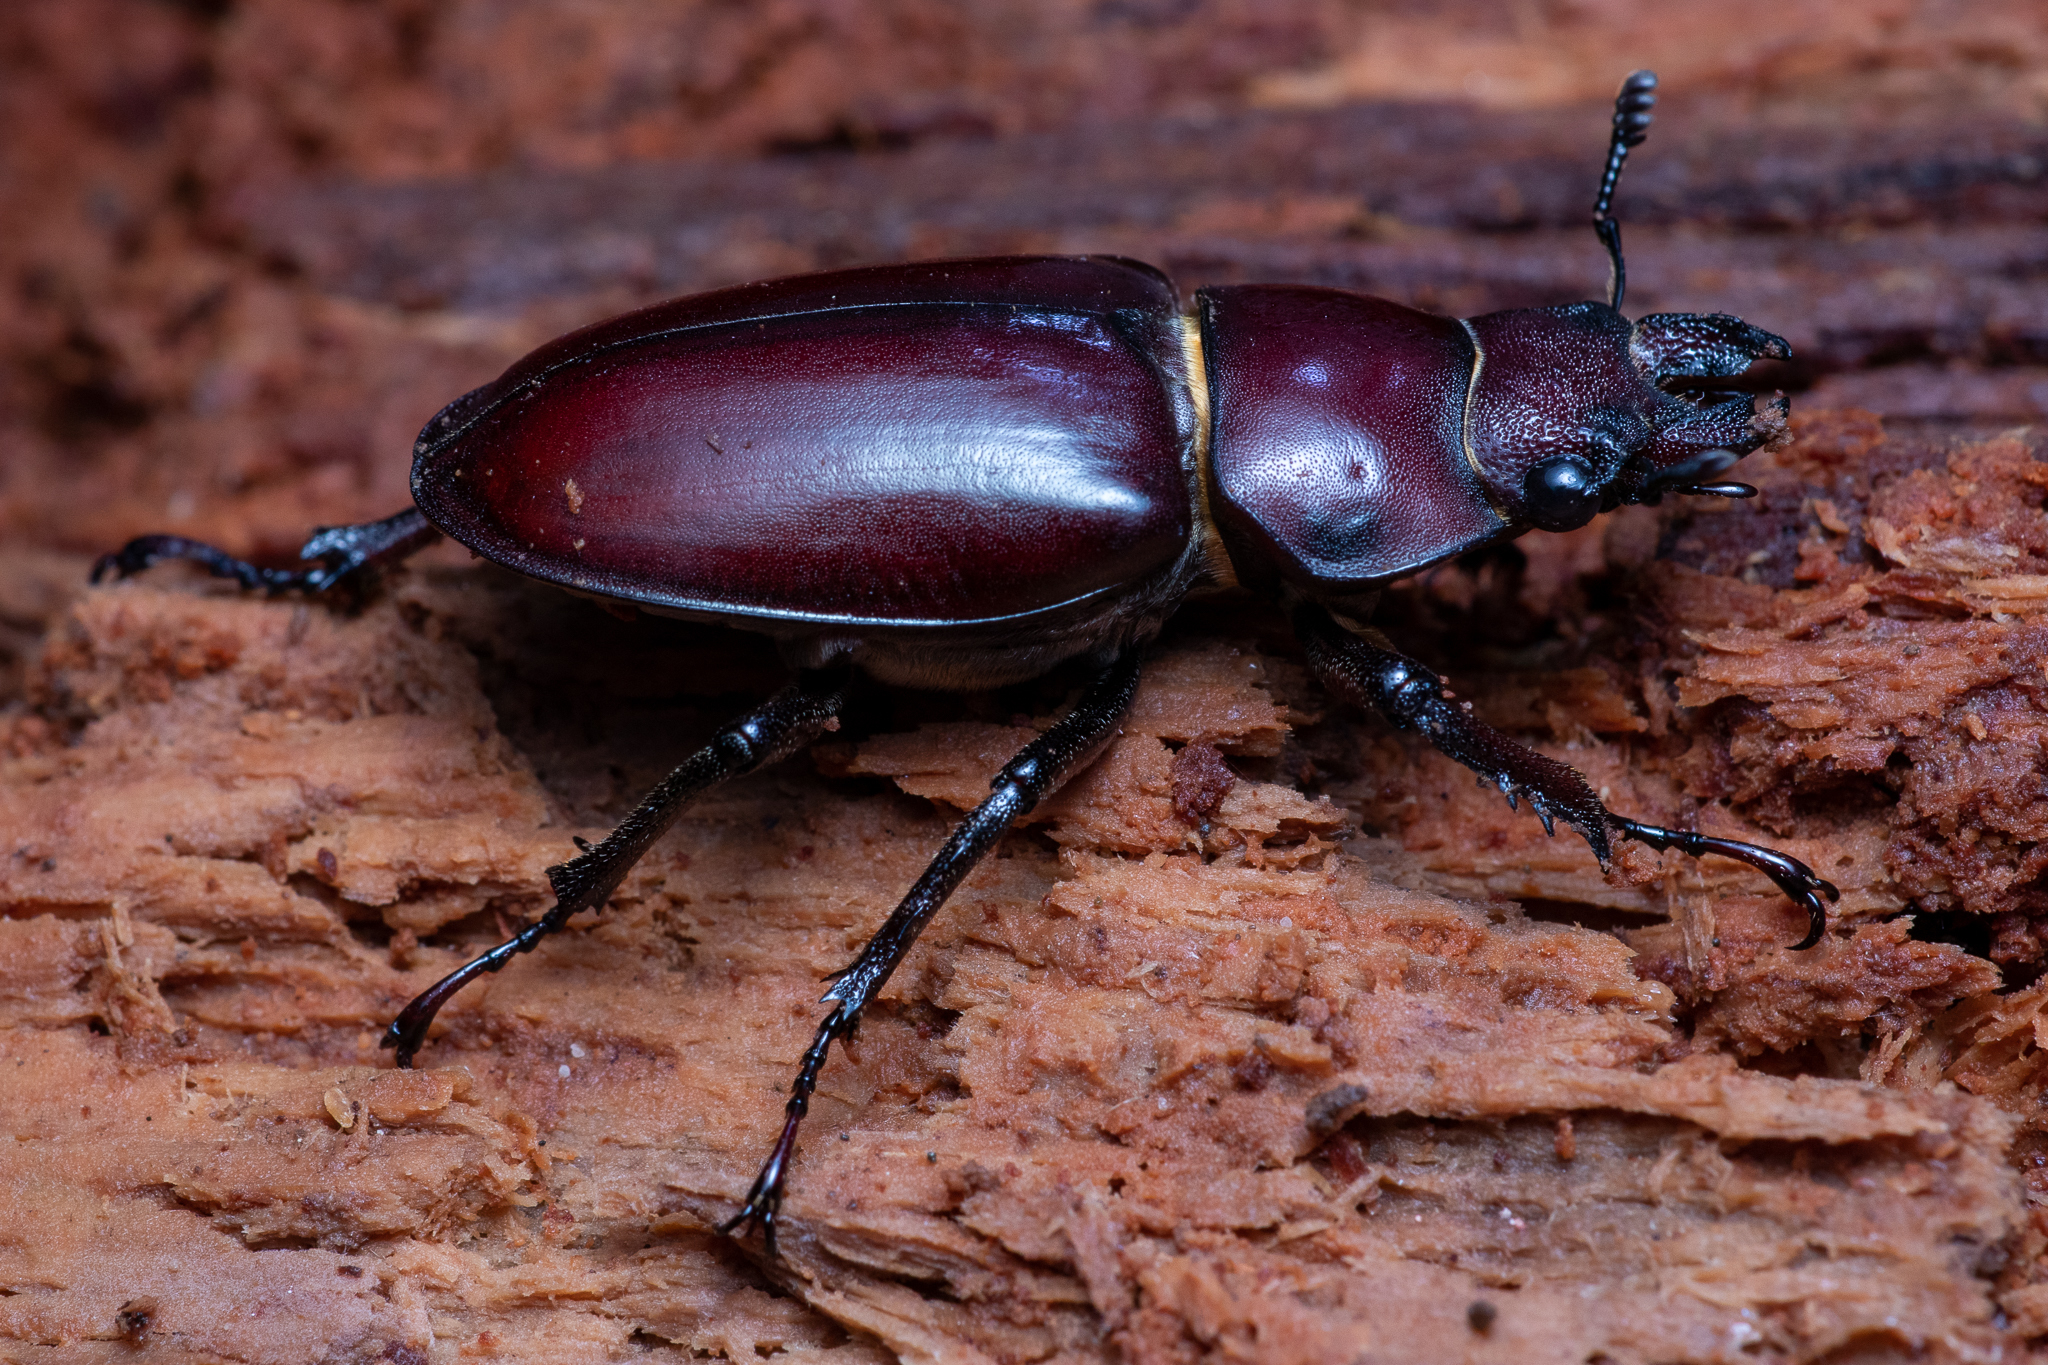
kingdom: Animalia
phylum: Arthropoda
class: Insecta
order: Coleoptera
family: Lucanidae
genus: Lucanus
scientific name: Lucanus elaphus
